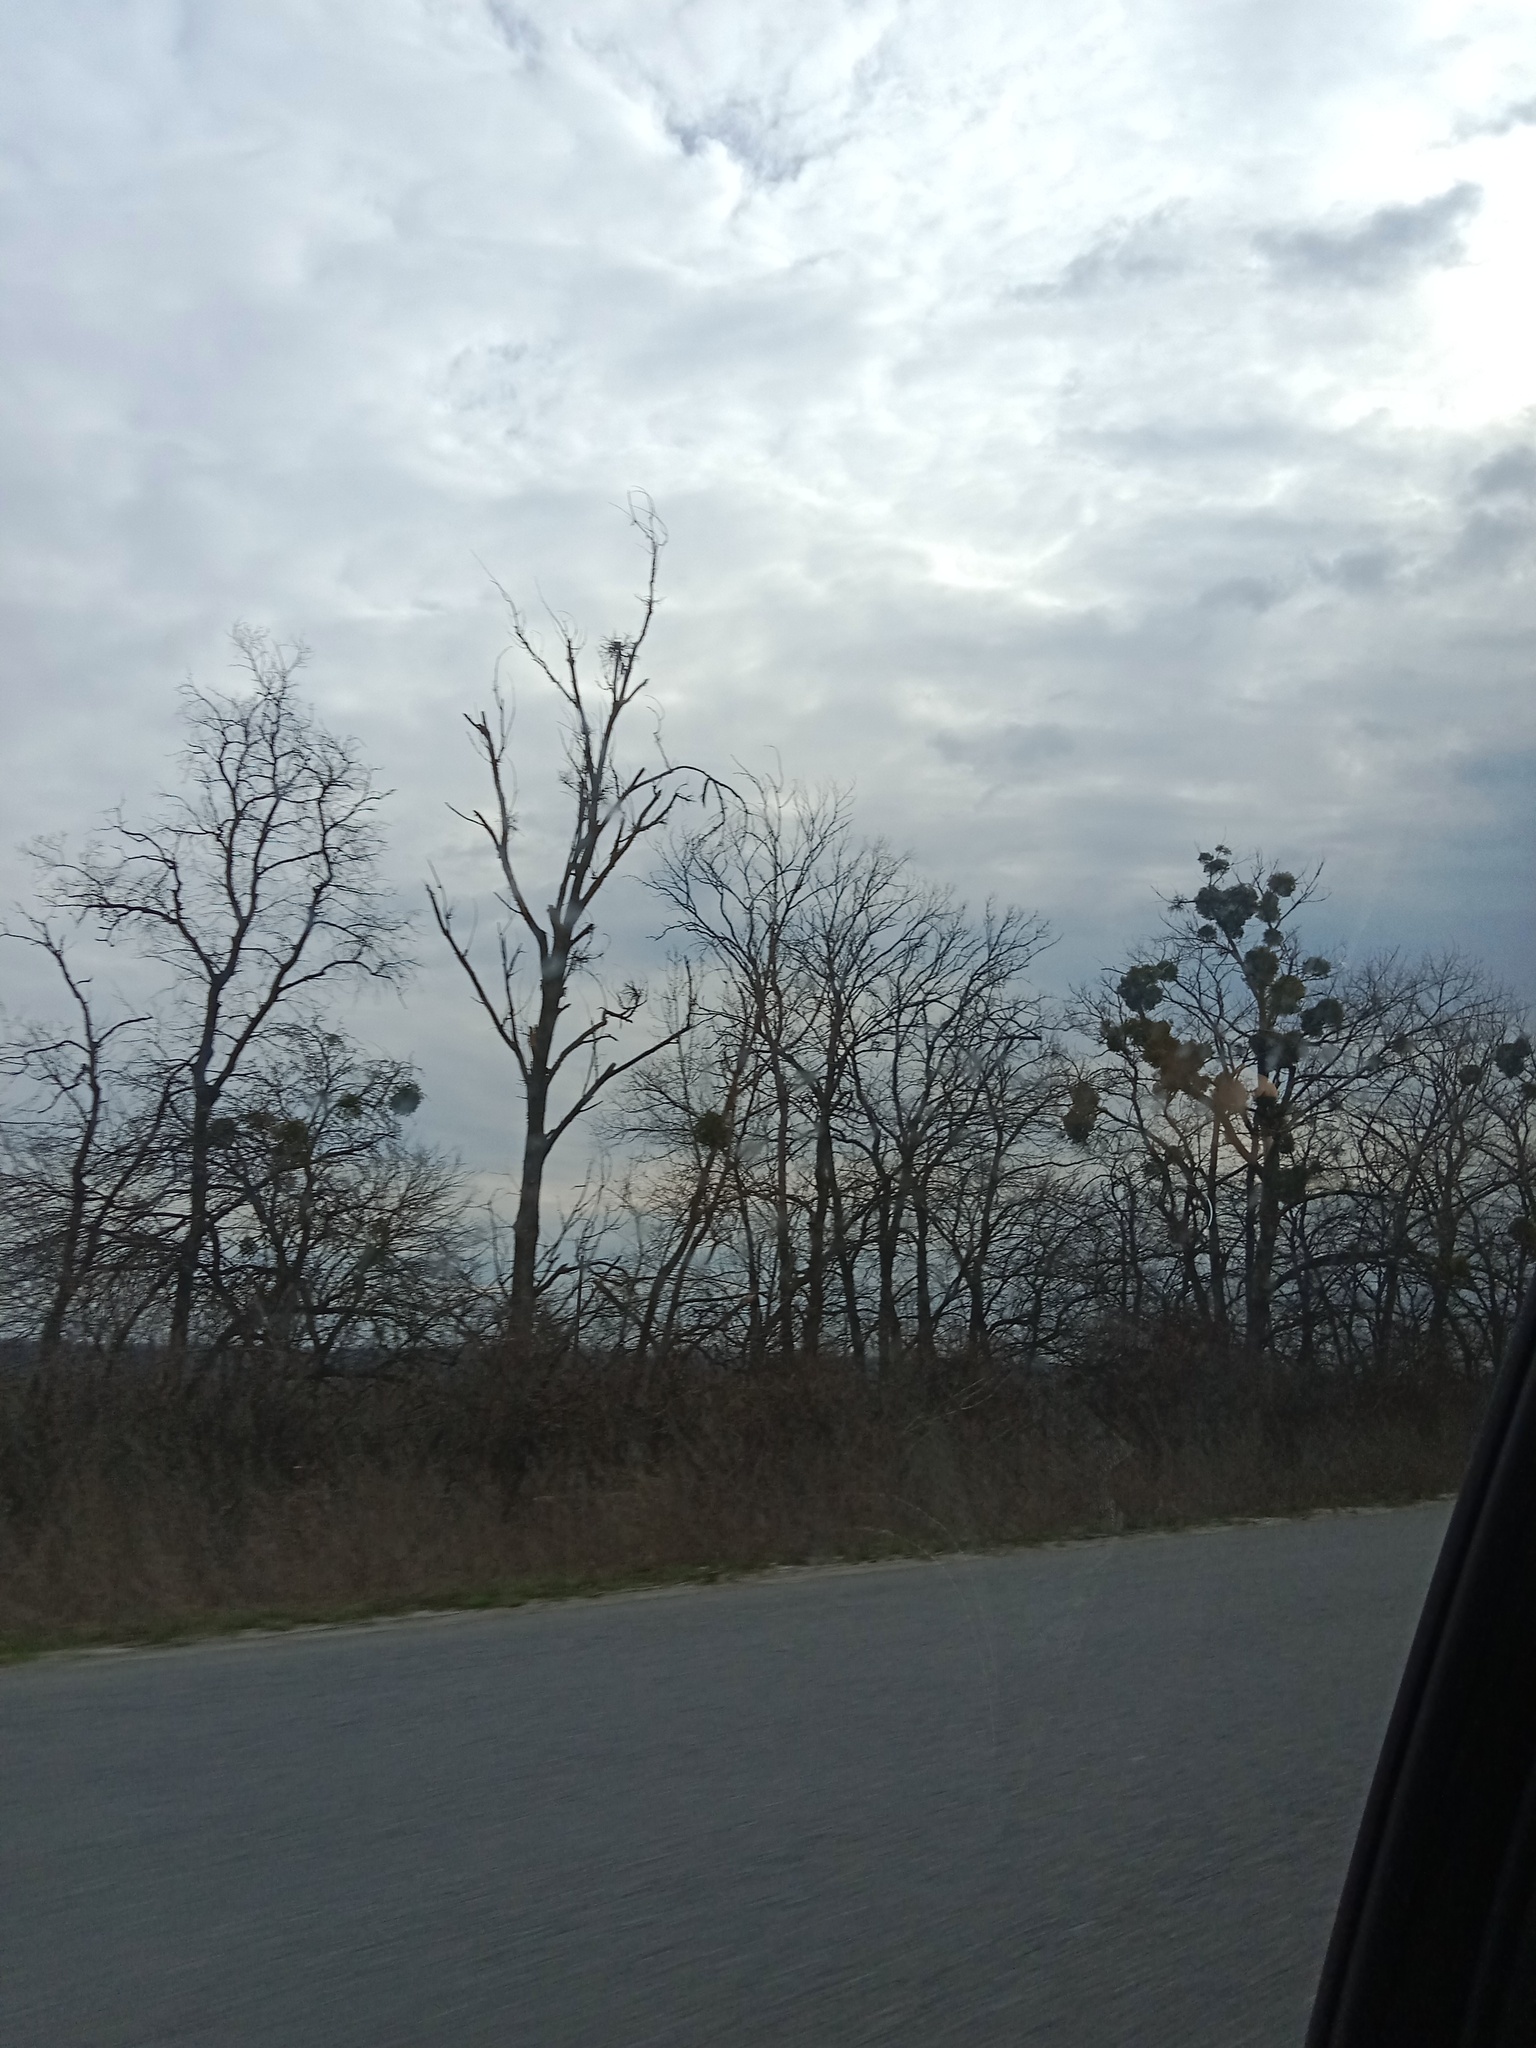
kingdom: Plantae
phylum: Tracheophyta
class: Magnoliopsida
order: Santalales
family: Viscaceae
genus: Viscum
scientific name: Viscum album
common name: Mistletoe
